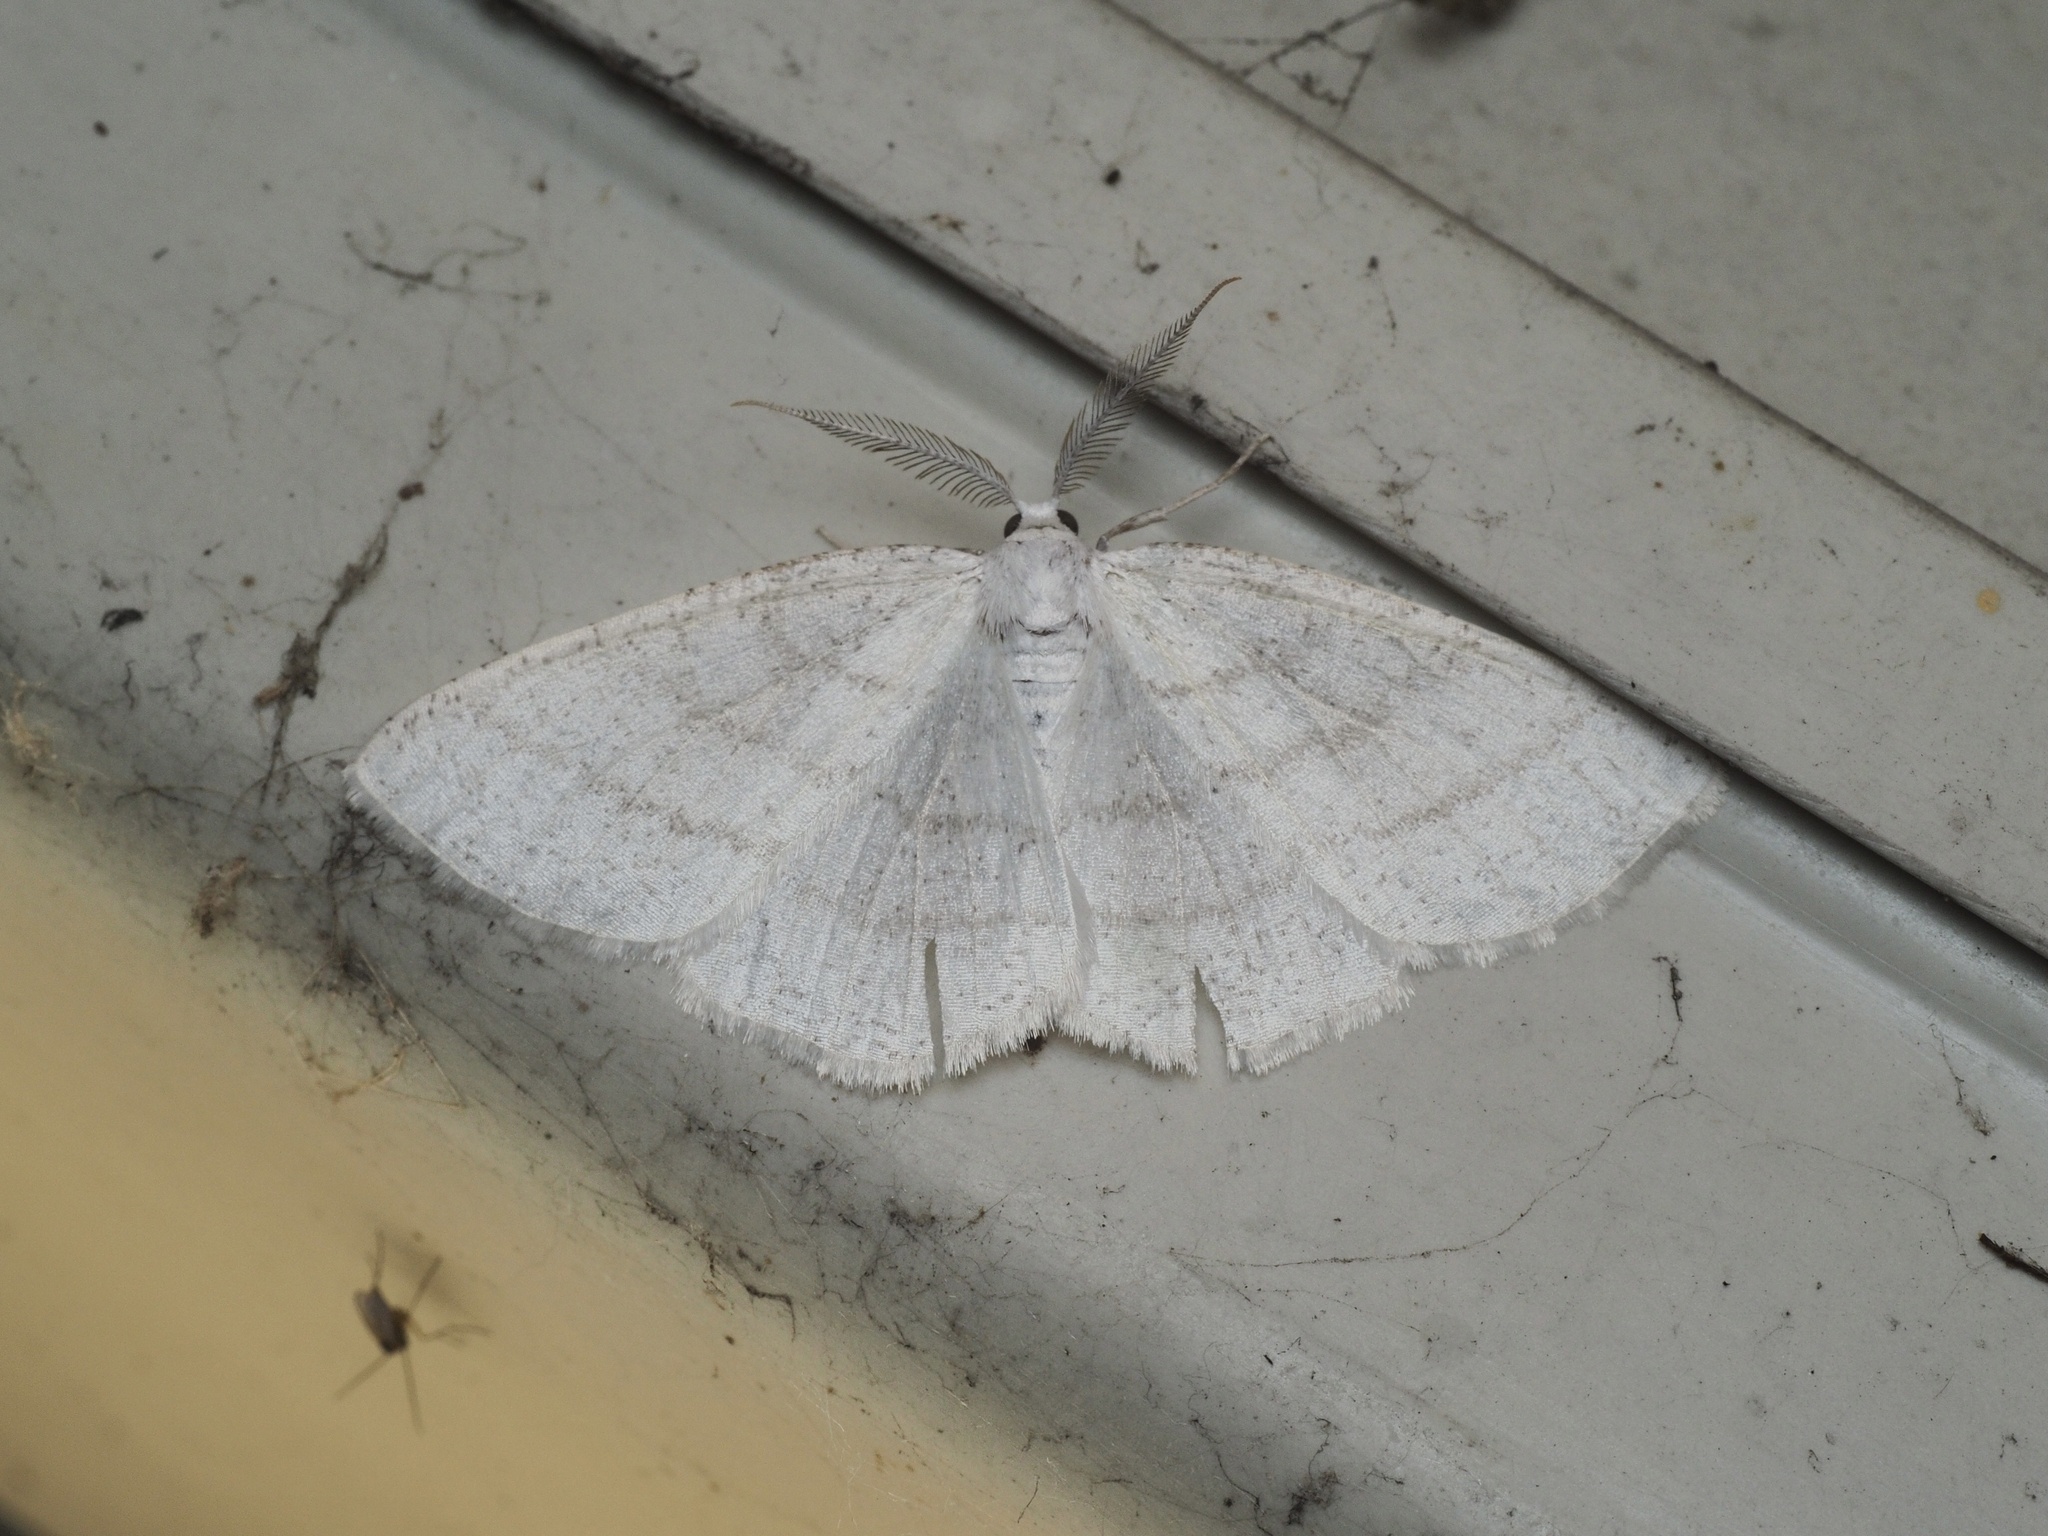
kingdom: Animalia
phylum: Arthropoda
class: Insecta
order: Lepidoptera
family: Geometridae
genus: Cabera
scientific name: Cabera pusaria
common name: Common white wave
